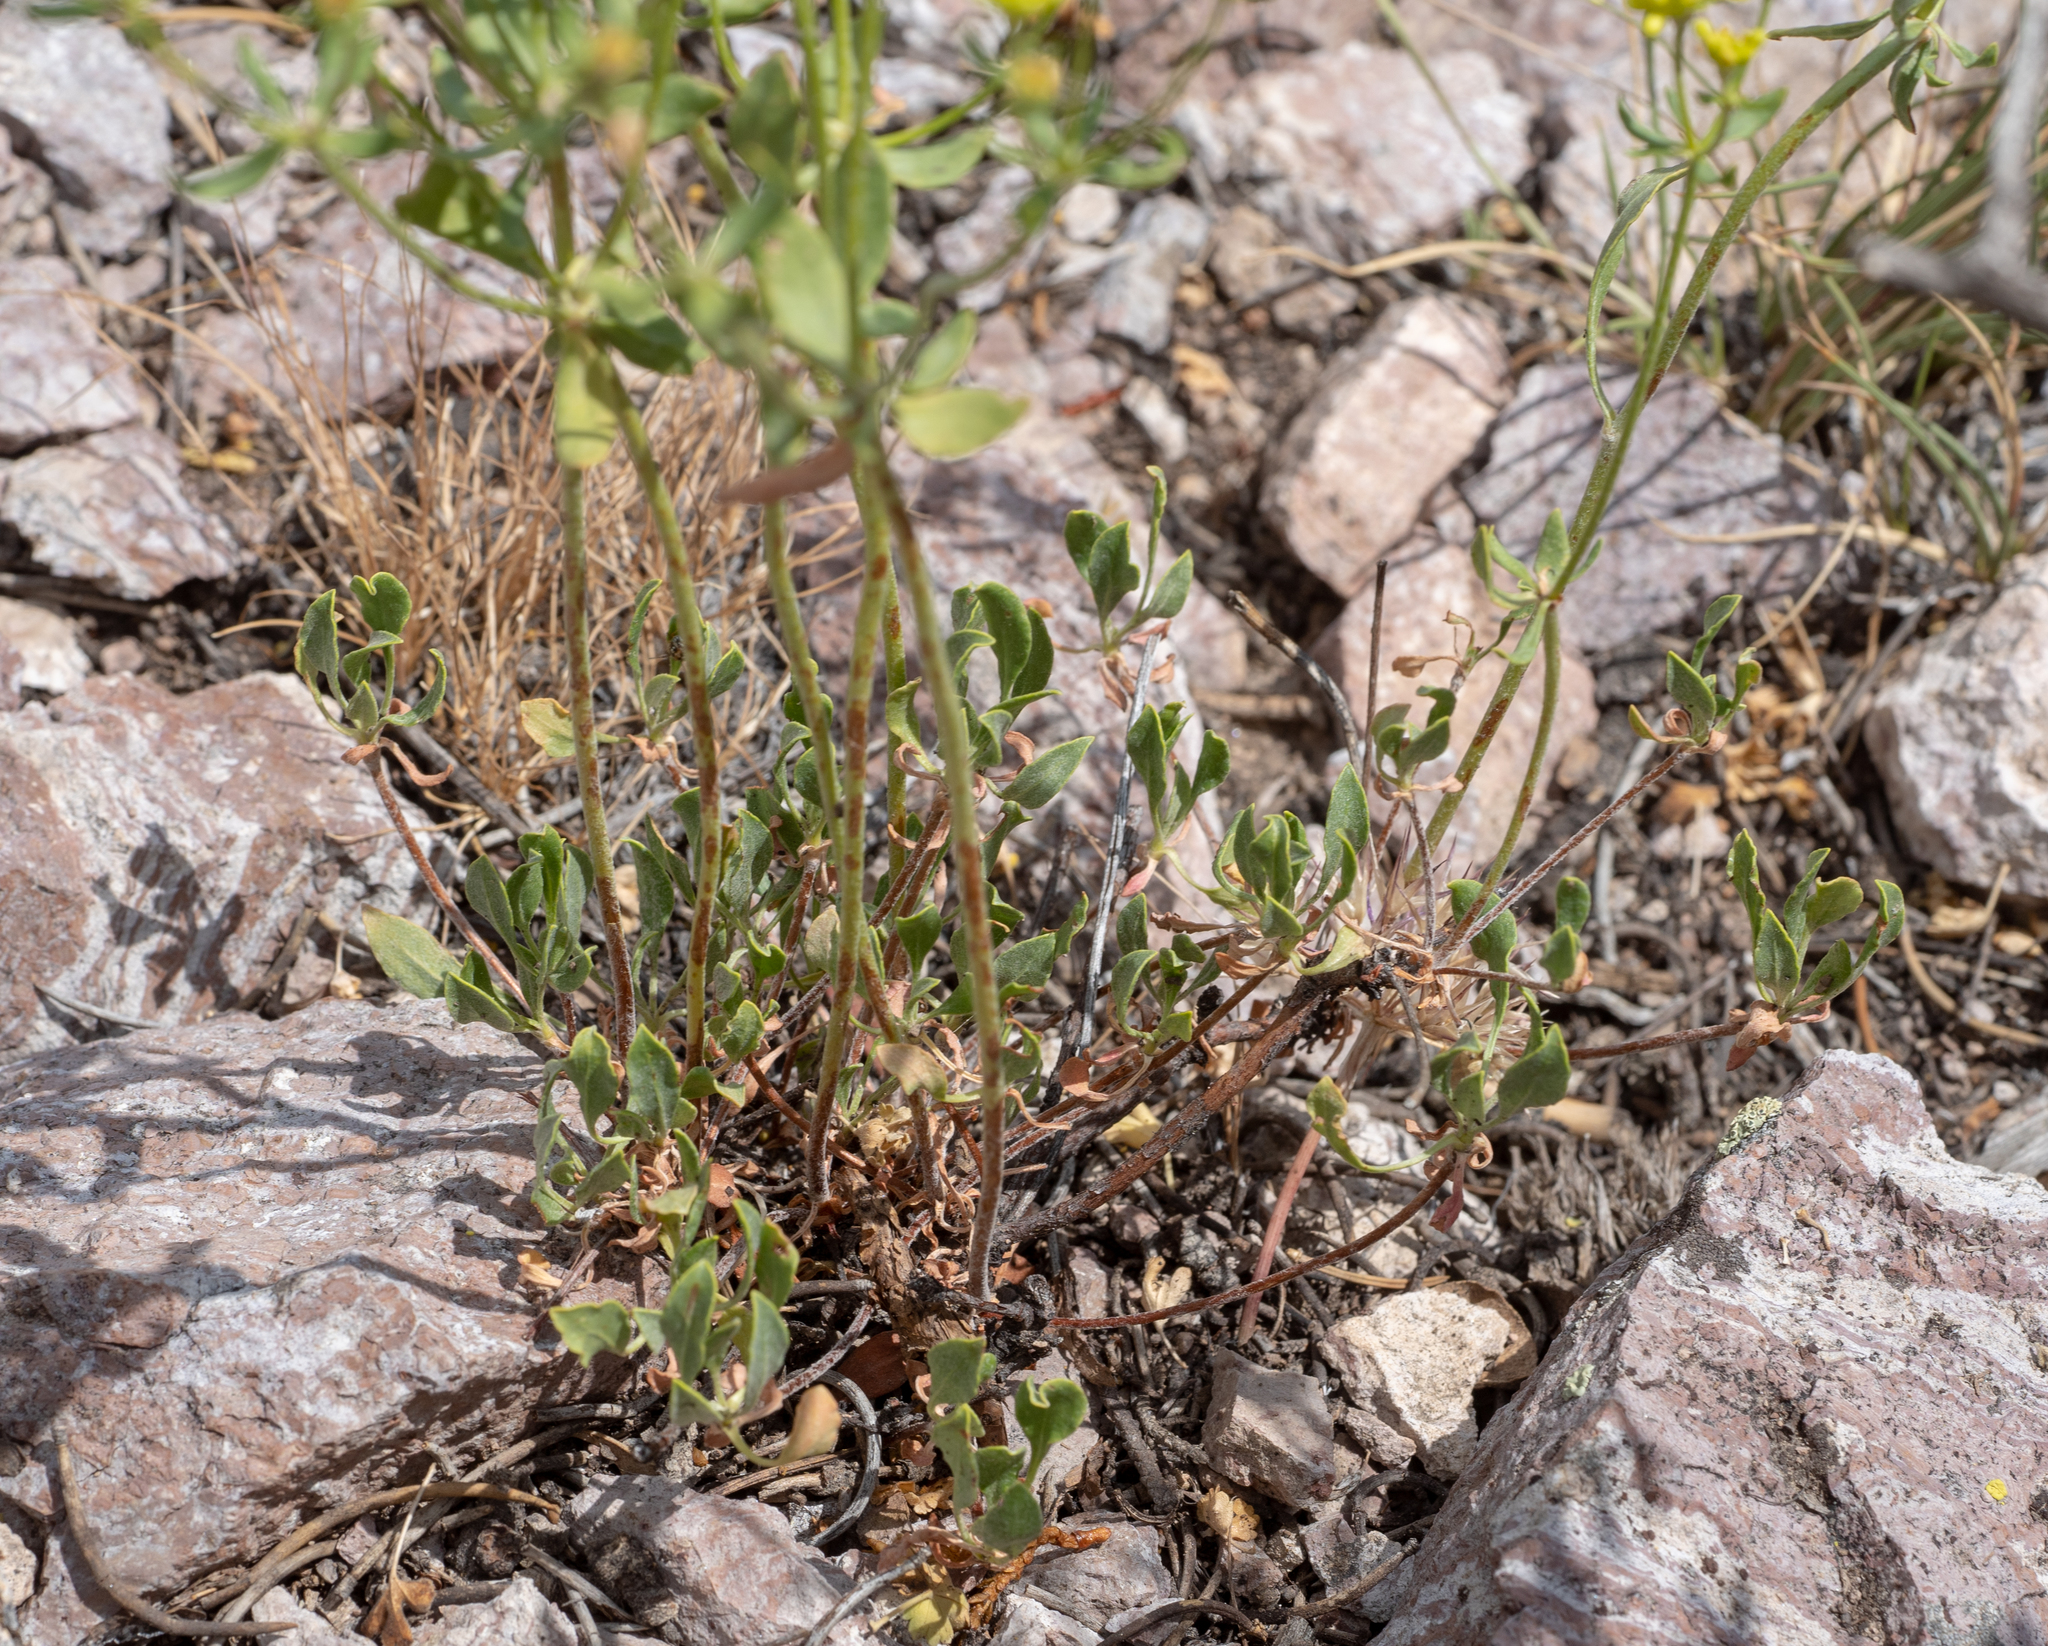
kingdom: Plantae
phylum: Tracheophyta
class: Magnoliopsida
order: Caryophyllales
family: Polygonaceae
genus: Eriogonum
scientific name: Eriogonum umbellatum
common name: Sulfur-buckwheat
